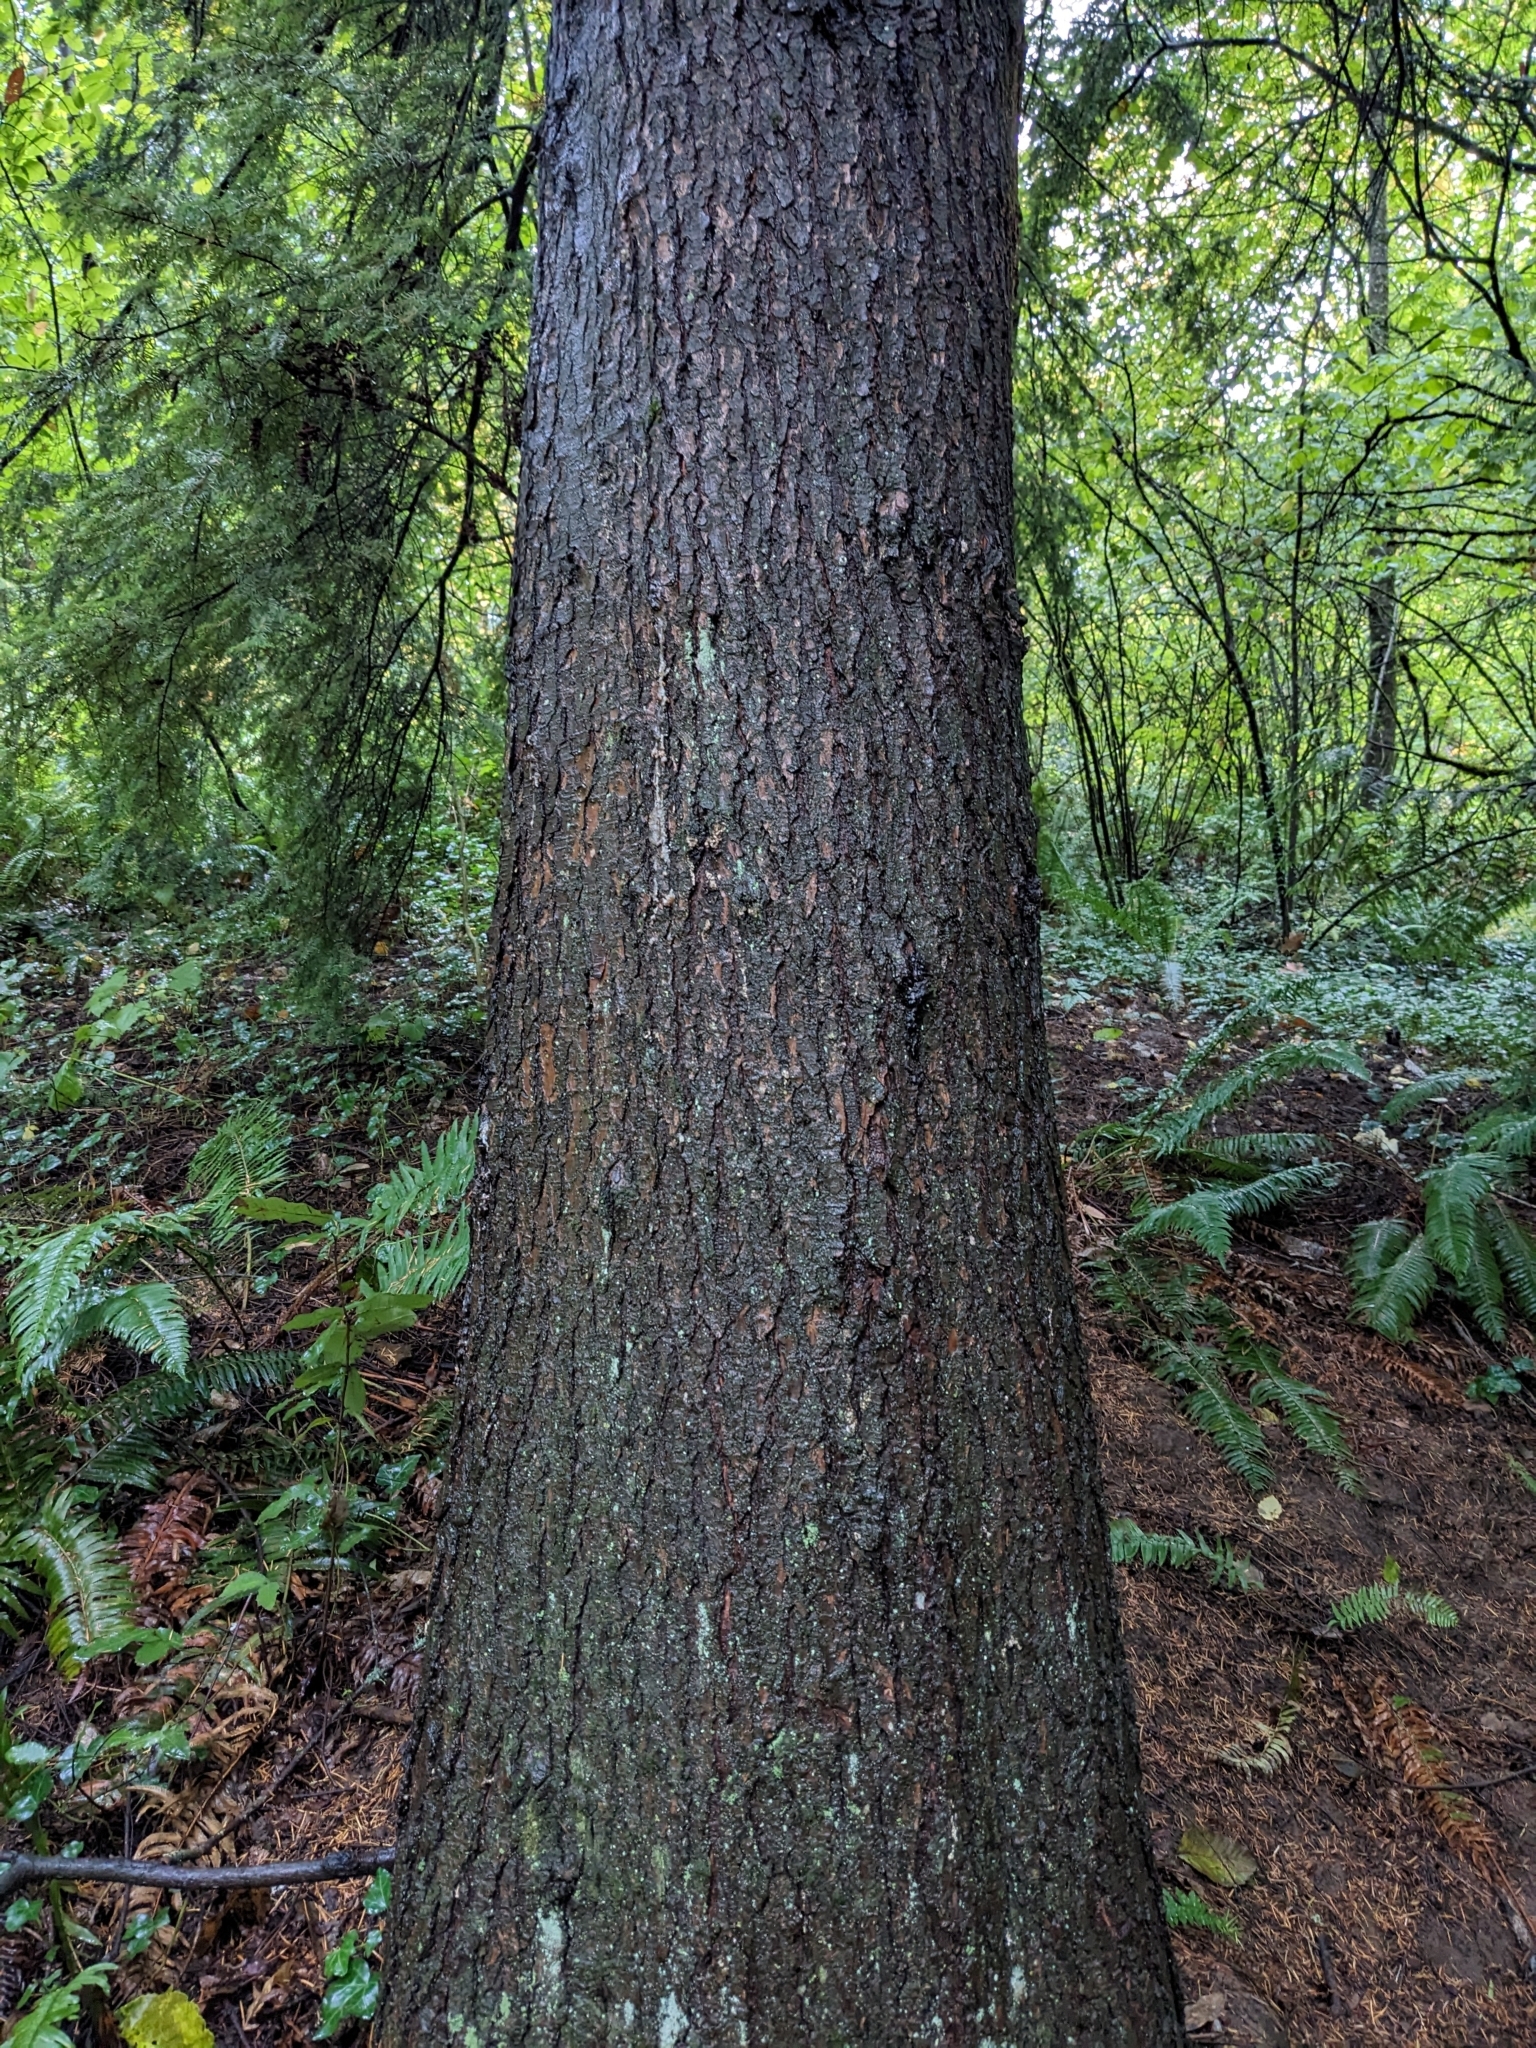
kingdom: Plantae
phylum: Tracheophyta
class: Pinopsida
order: Pinales
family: Pinaceae
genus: Tsuga
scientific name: Tsuga heterophylla
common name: Western hemlock
